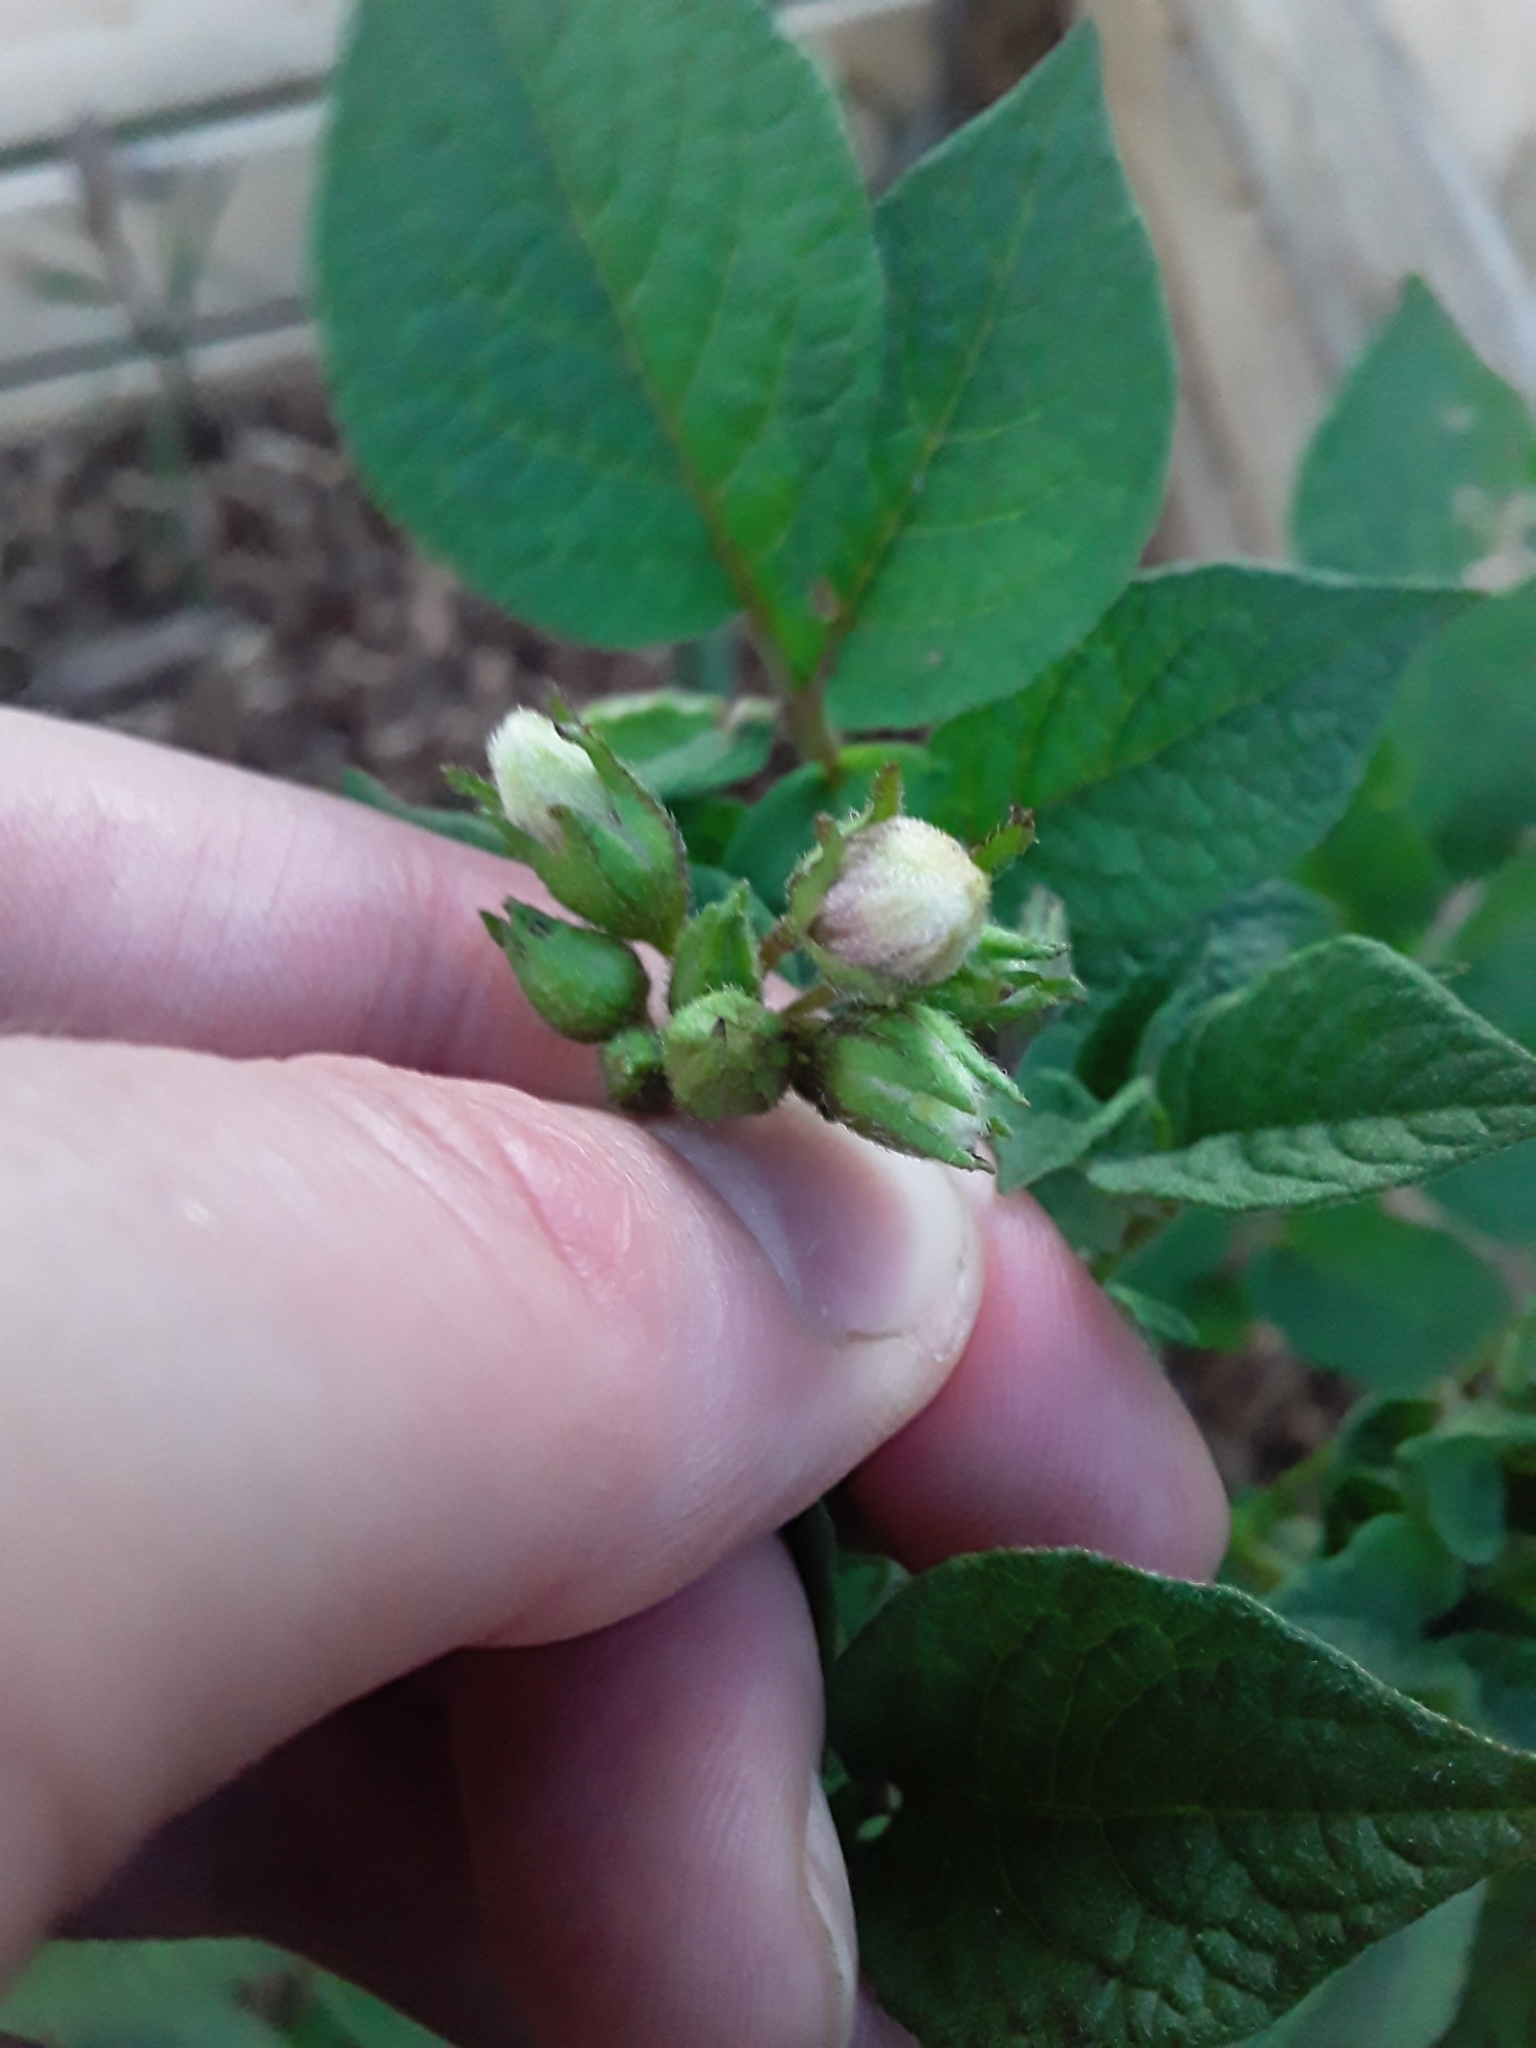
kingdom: Plantae
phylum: Tracheophyta
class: Magnoliopsida
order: Solanales
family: Solanaceae
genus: Solanum
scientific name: Solanum tuberosum
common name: Potato
